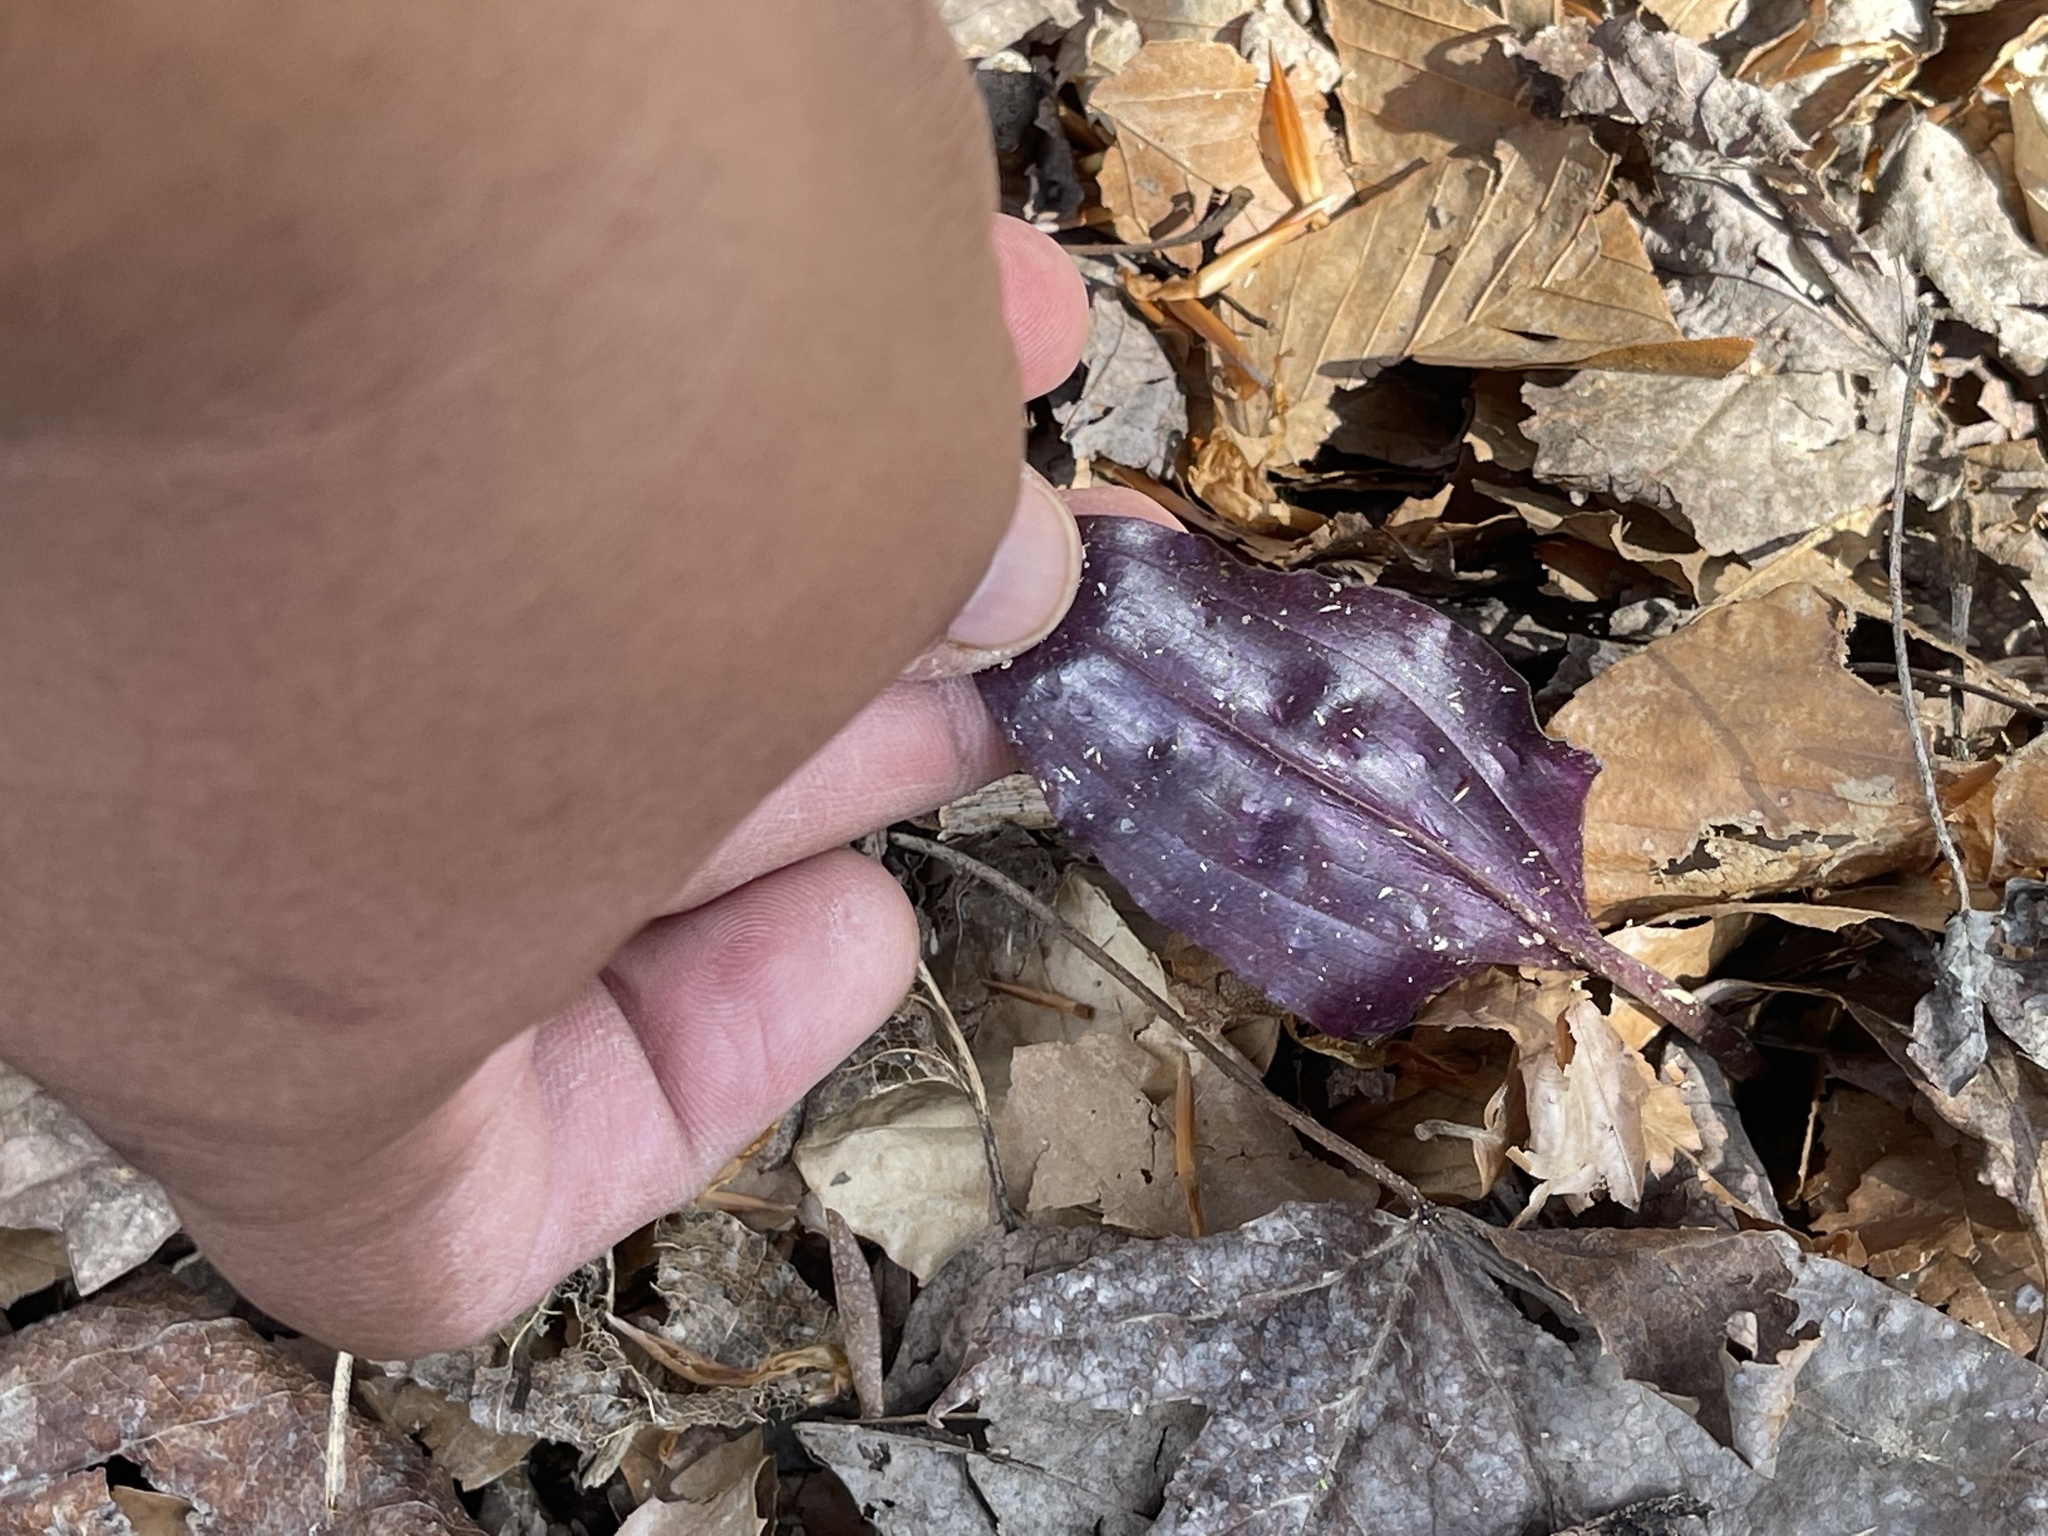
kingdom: Plantae
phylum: Tracheophyta
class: Liliopsida
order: Asparagales
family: Orchidaceae
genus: Tipularia
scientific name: Tipularia discolor
